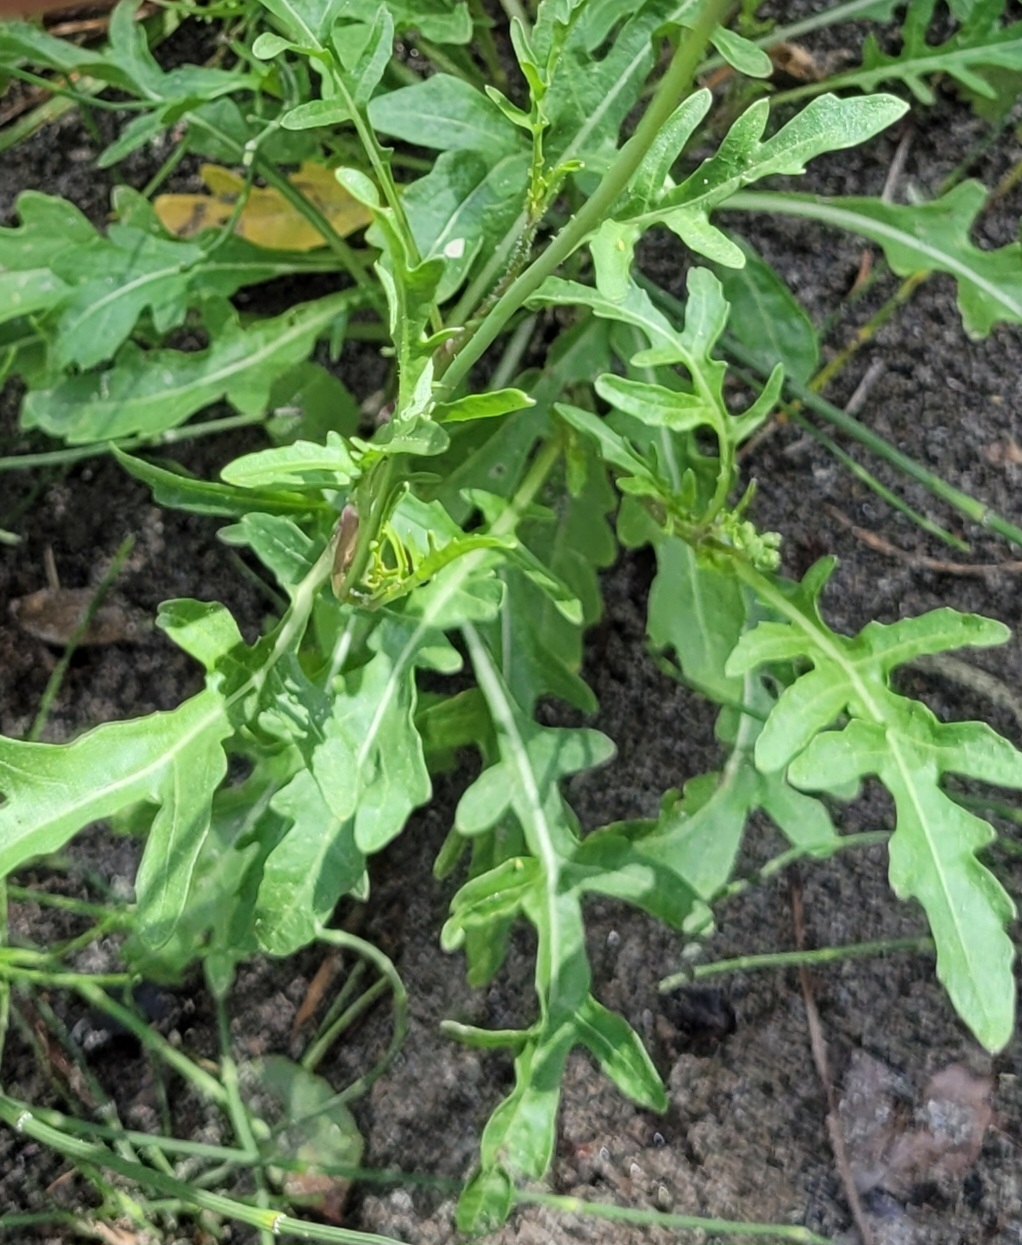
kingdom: Plantae
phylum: Tracheophyta
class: Magnoliopsida
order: Brassicales
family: Brassicaceae
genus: Diplotaxis
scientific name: Diplotaxis tenuifolia
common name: Perennial wall-rocket
